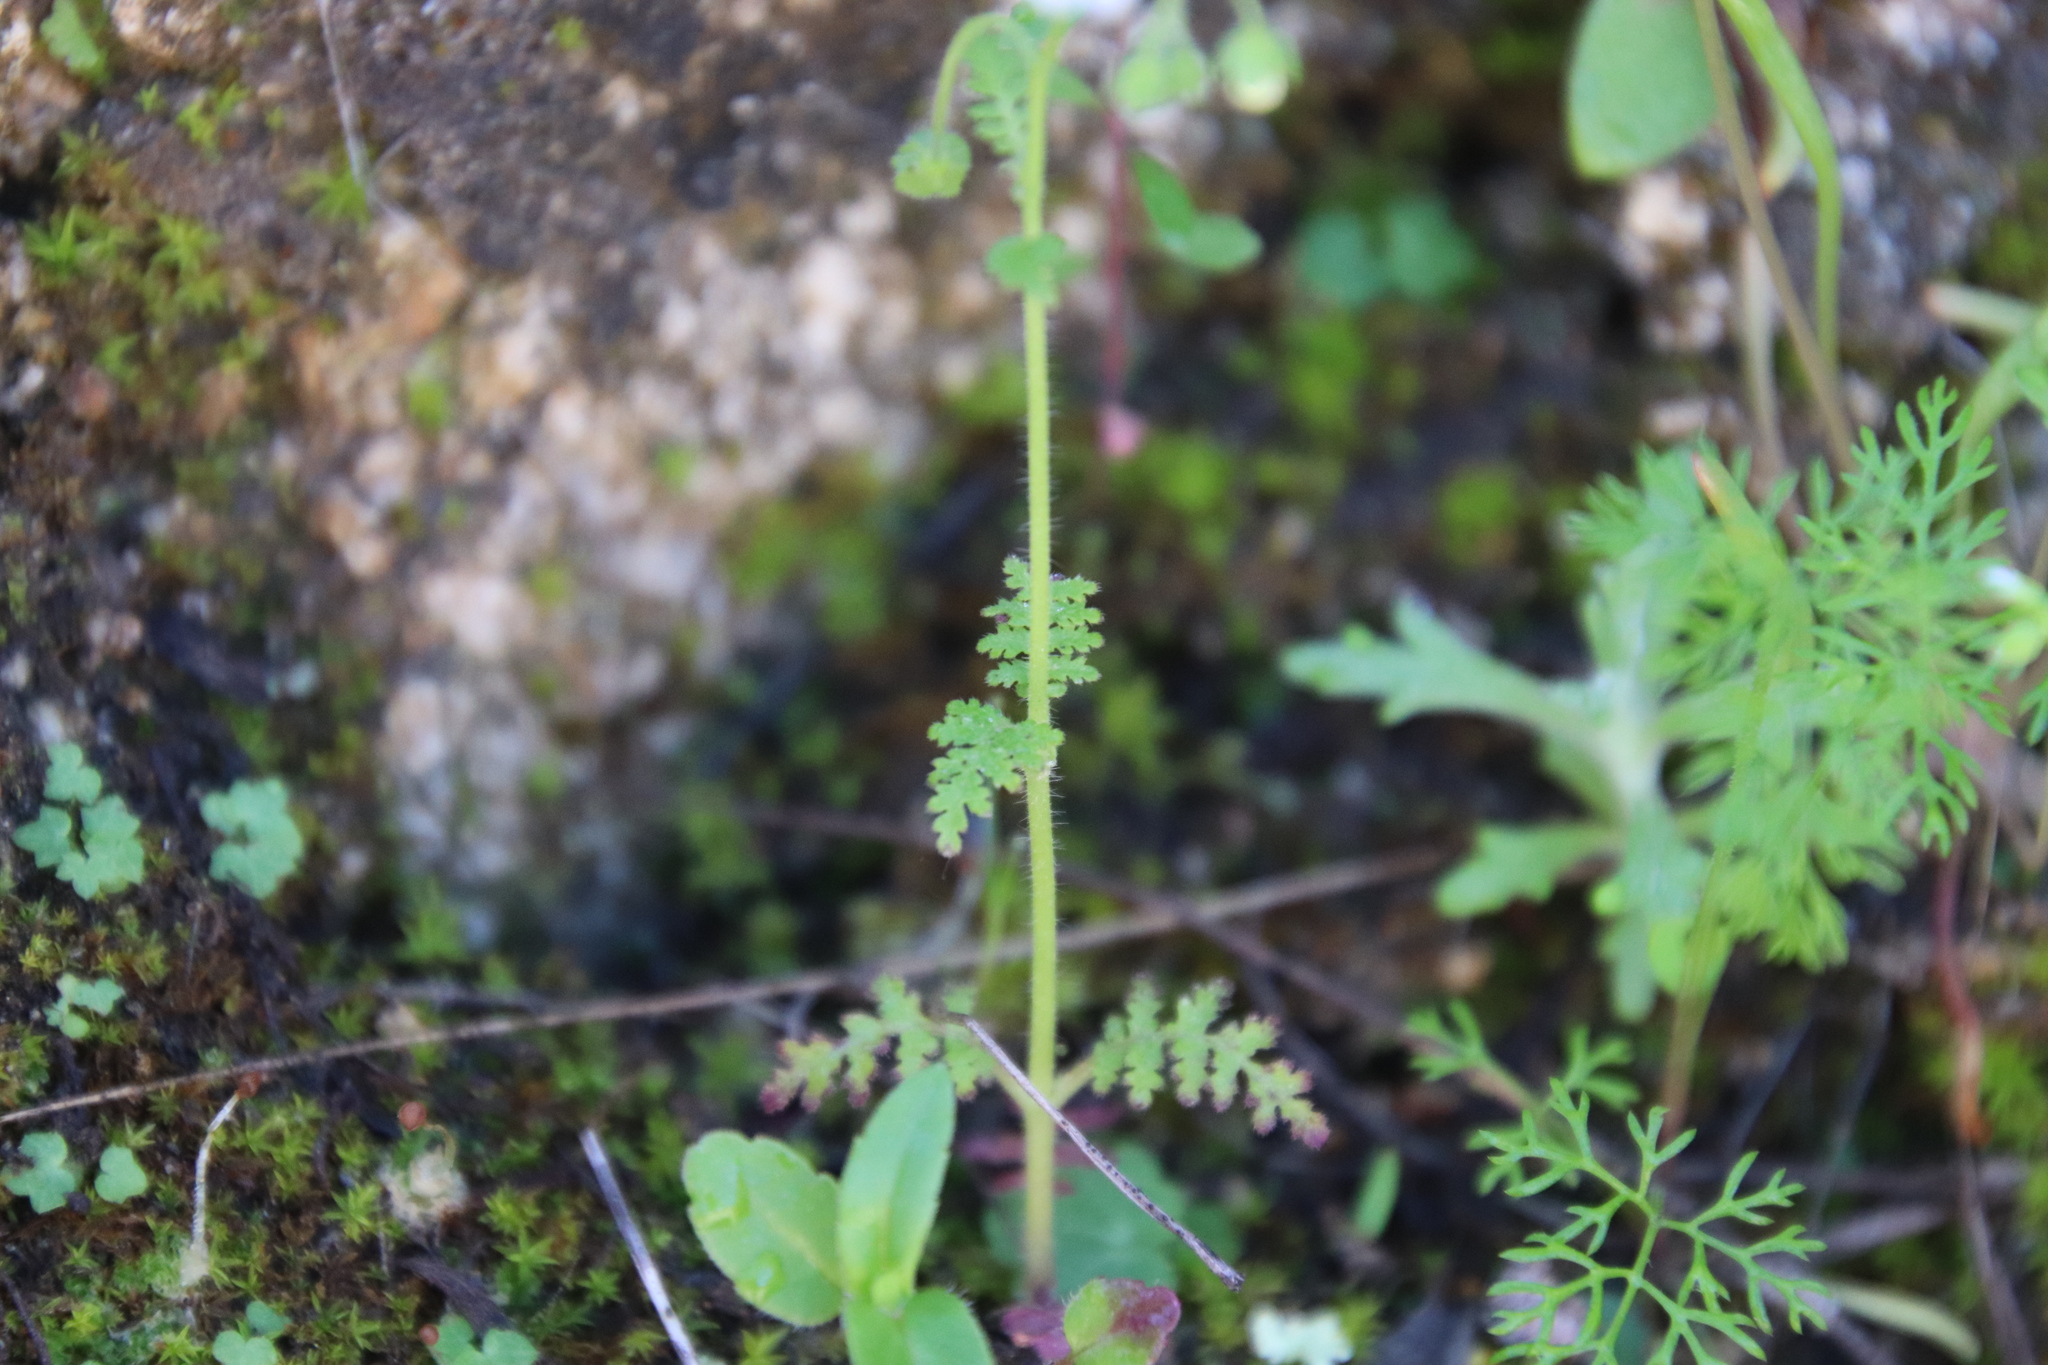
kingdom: Plantae
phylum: Tracheophyta
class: Magnoliopsida
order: Boraginales
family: Hydrophyllaceae
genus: Eucrypta
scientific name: Eucrypta chrysanthemifolia
